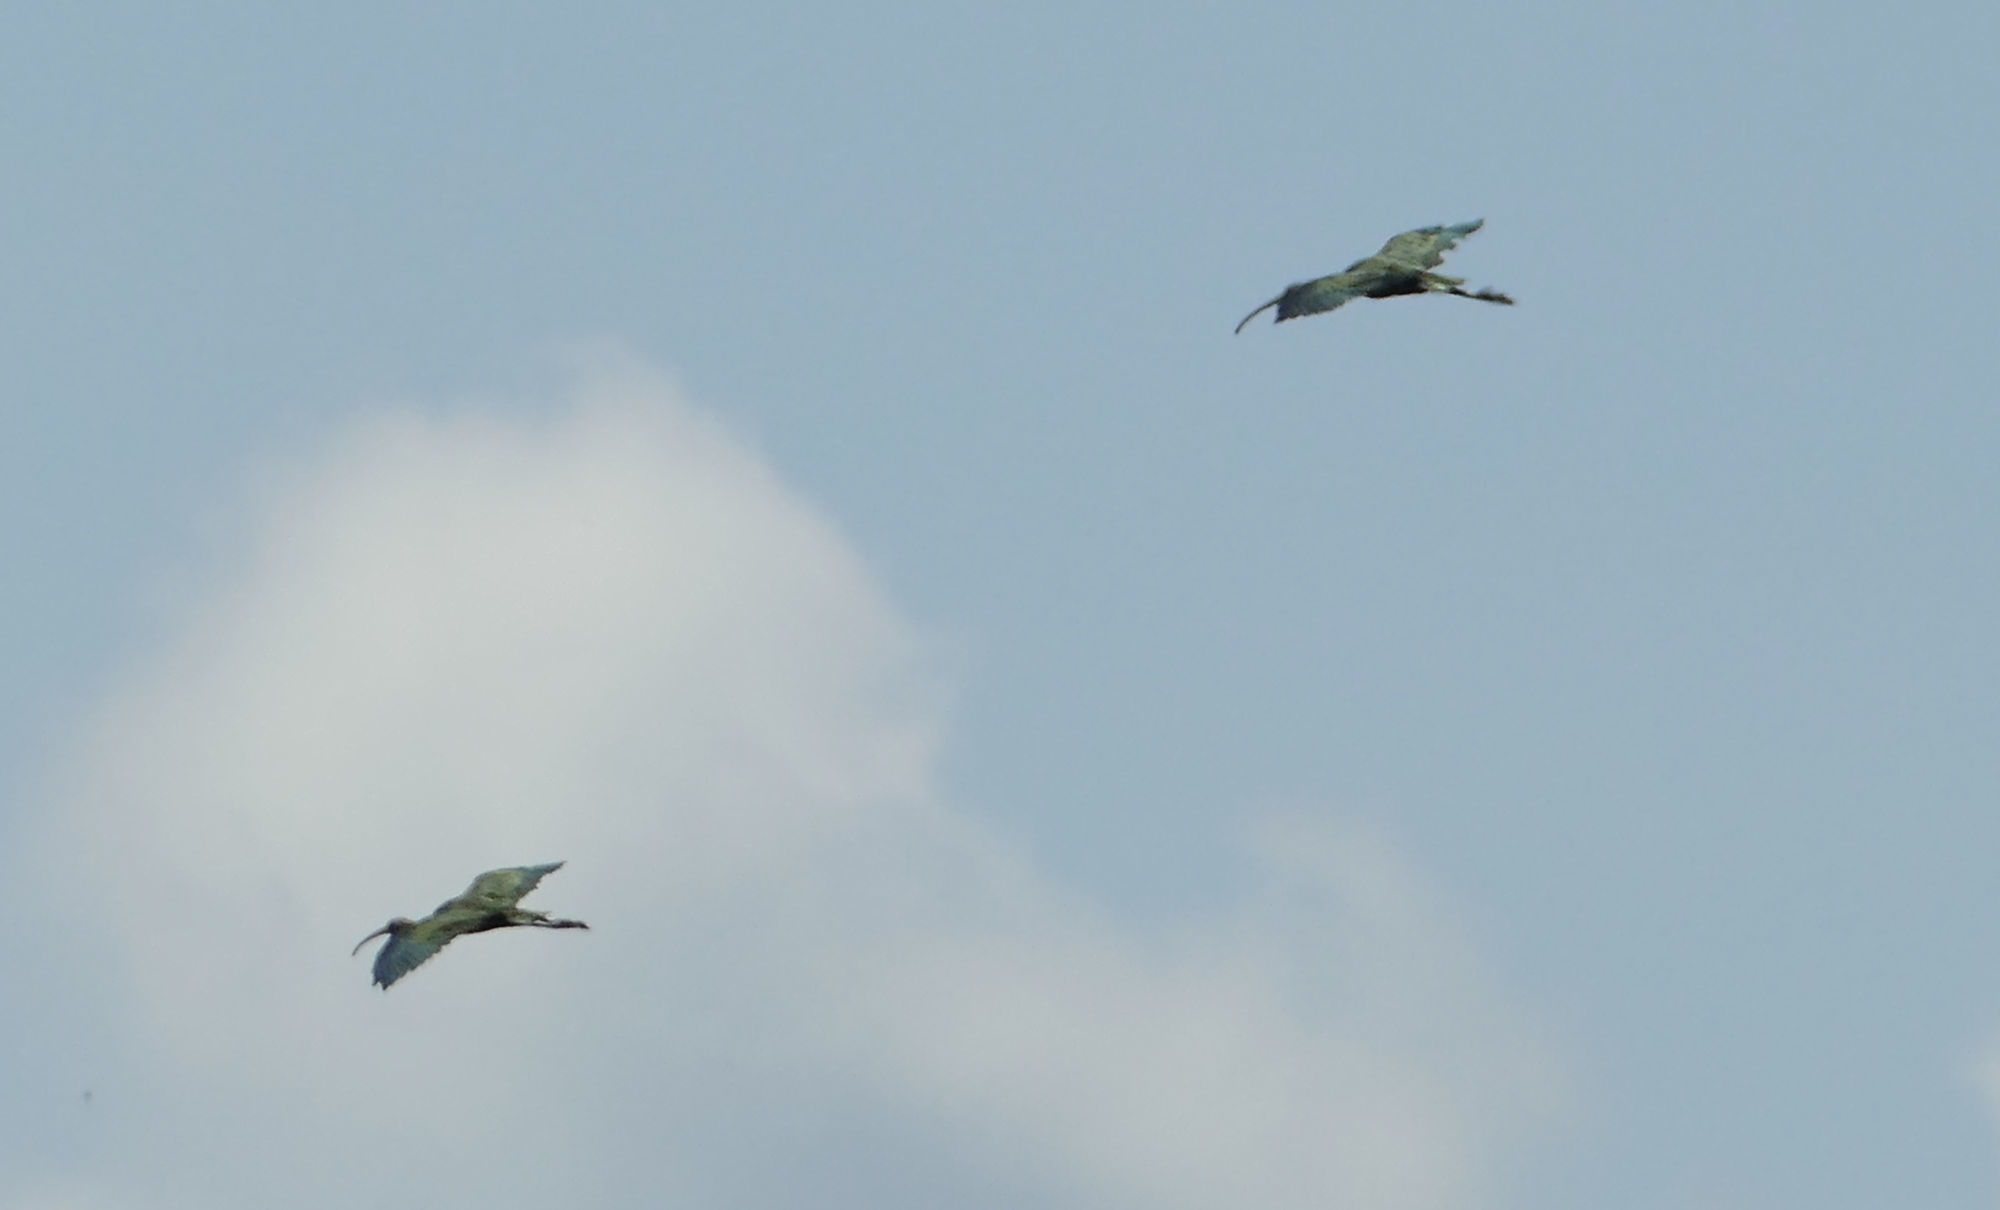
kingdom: Animalia
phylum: Chordata
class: Aves
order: Pelecaniformes
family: Threskiornithidae
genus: Plegadis
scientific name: Plegadis chihi
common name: White-faced ibis
